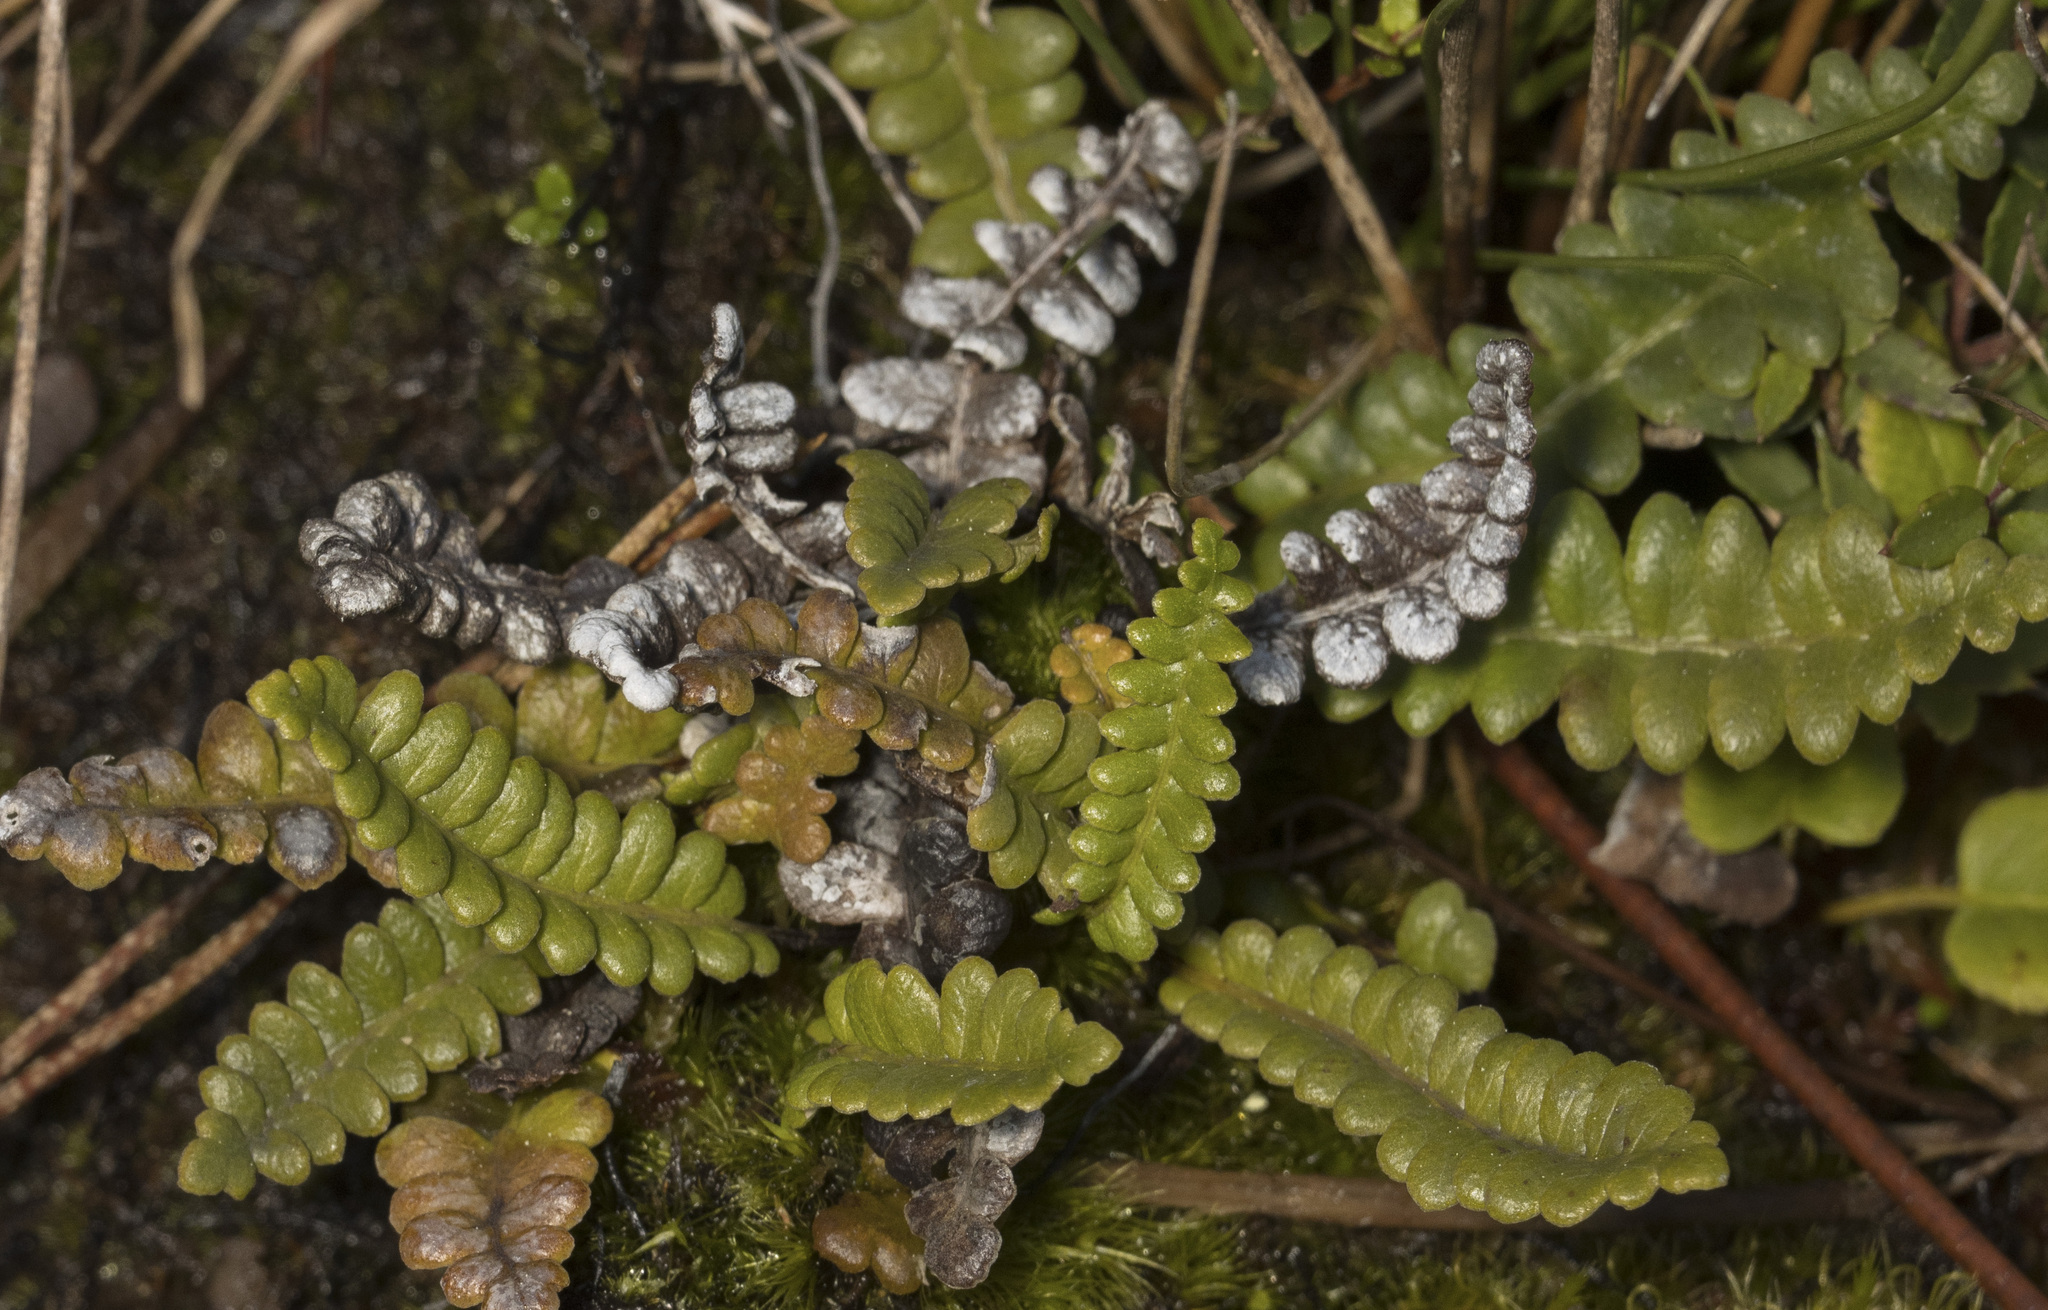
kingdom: Plantae
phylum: Tracheophyta
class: Polypodiopsida
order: Polypodiales
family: Blechnaceae
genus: Austroblechnum
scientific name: Austroblechnum penna-marina
